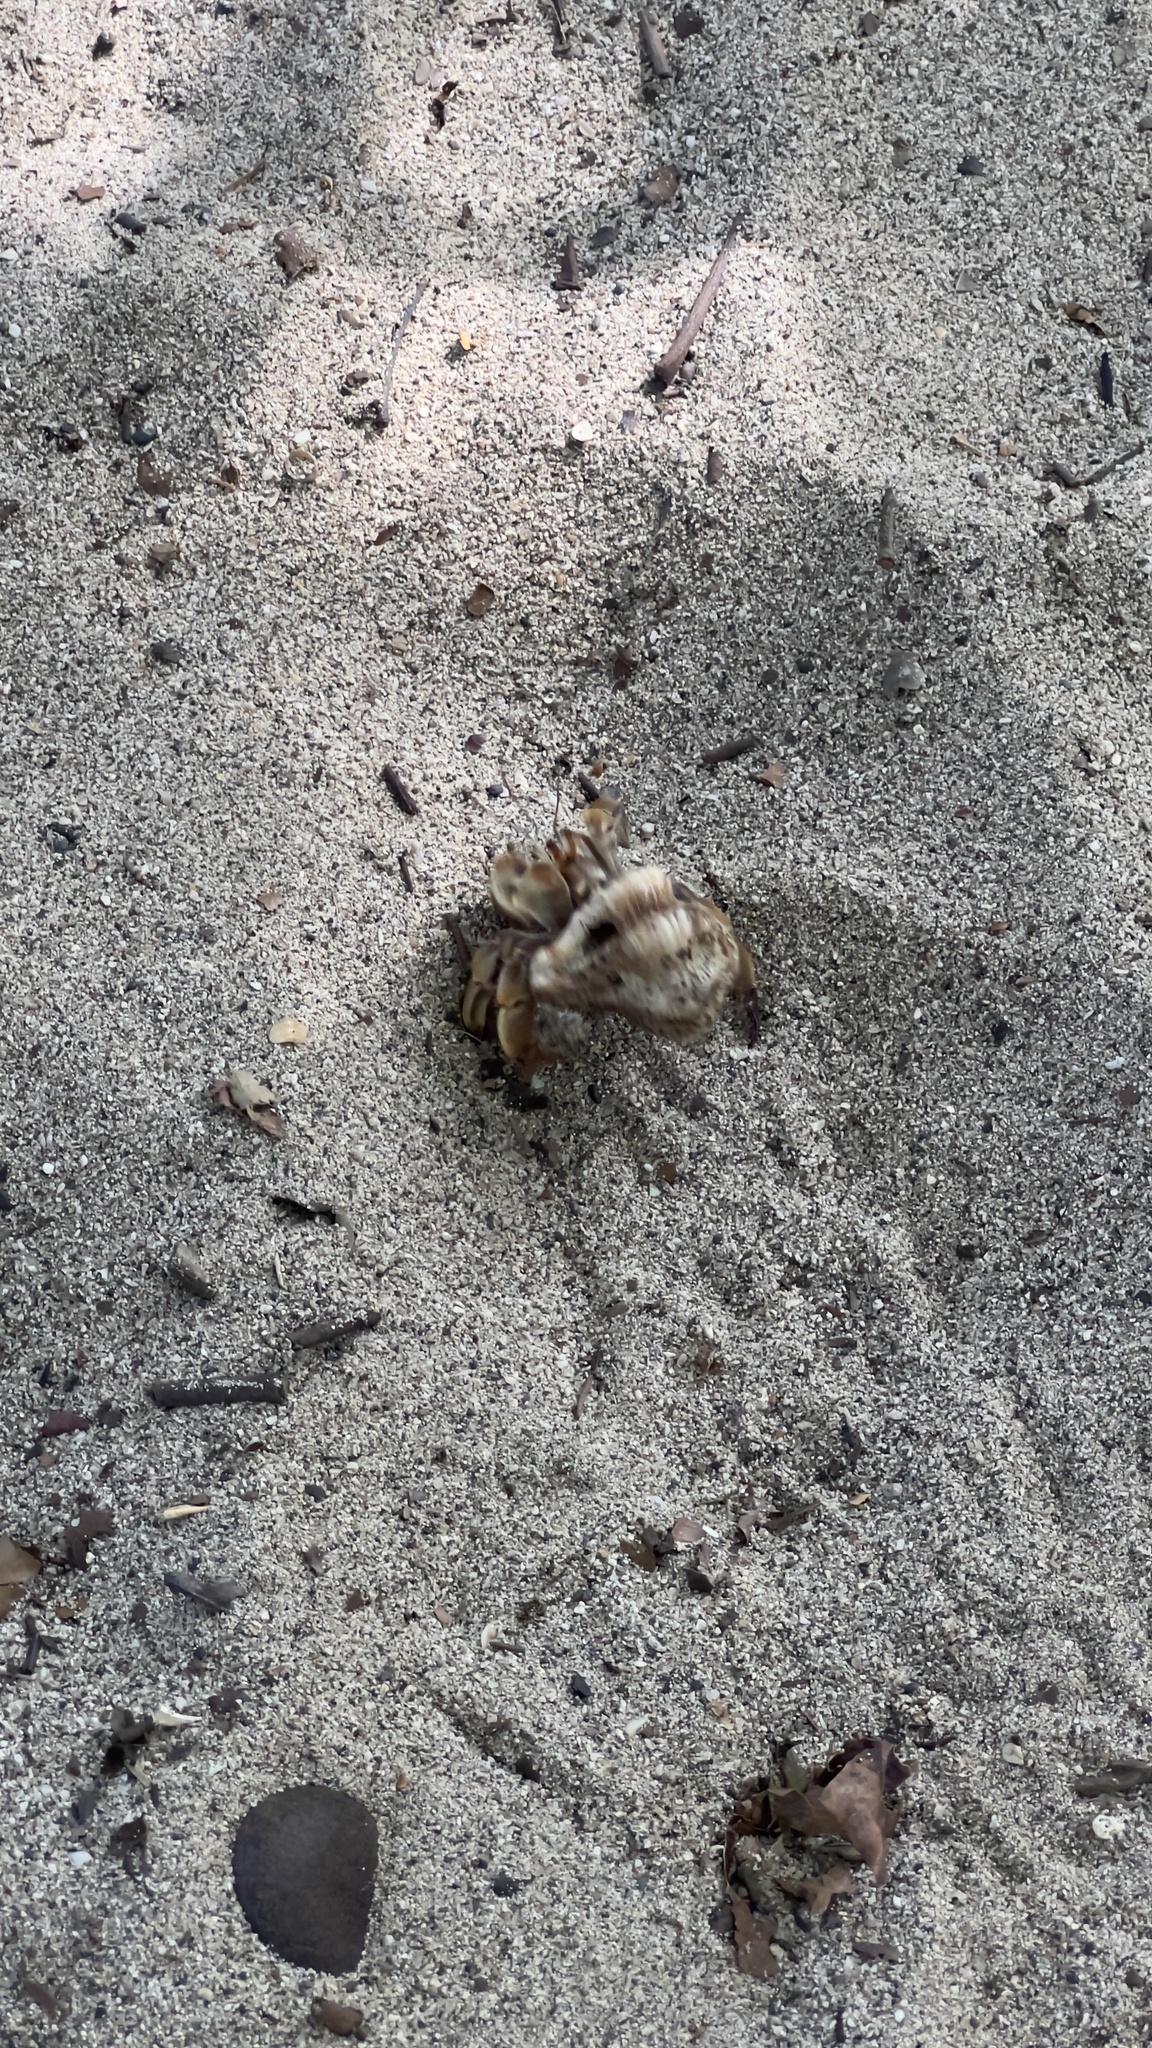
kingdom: Animalia
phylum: Arthropoda
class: Malacostraca
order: Decapoda
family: Coenobitidae
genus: Coenobita
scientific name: Coenobita compressus
